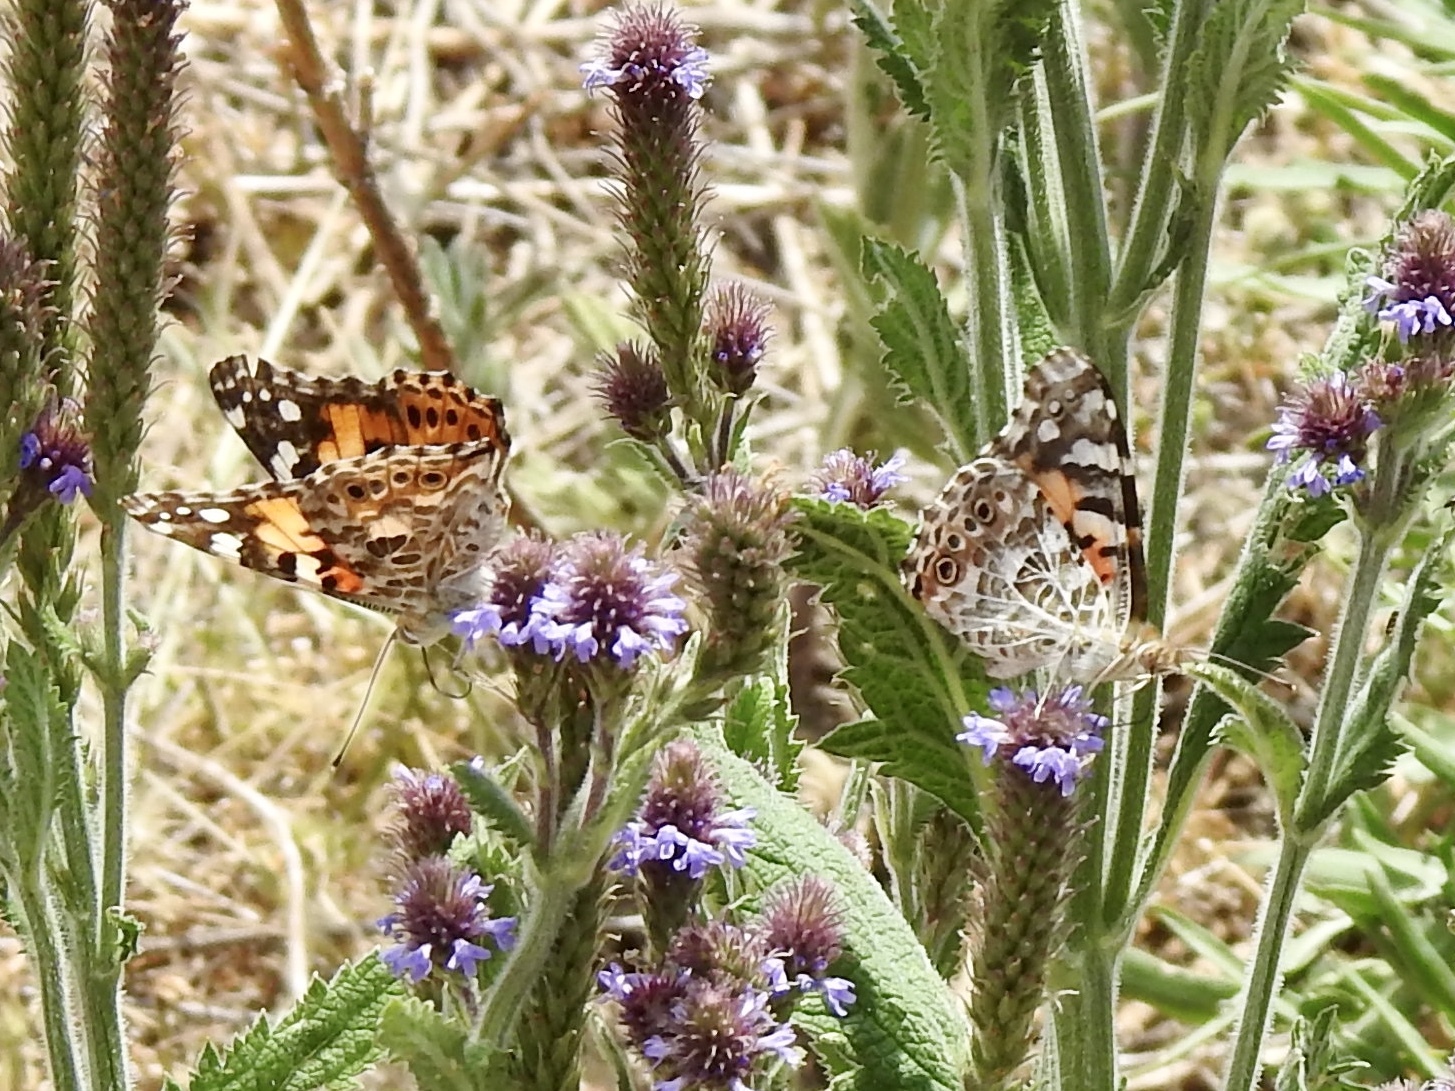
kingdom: Animalia
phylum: Arthropoda
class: Insecta
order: Lepidoptera
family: Nymphalidae
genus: Vanessa
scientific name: Vanessa cardui
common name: Painted lady
